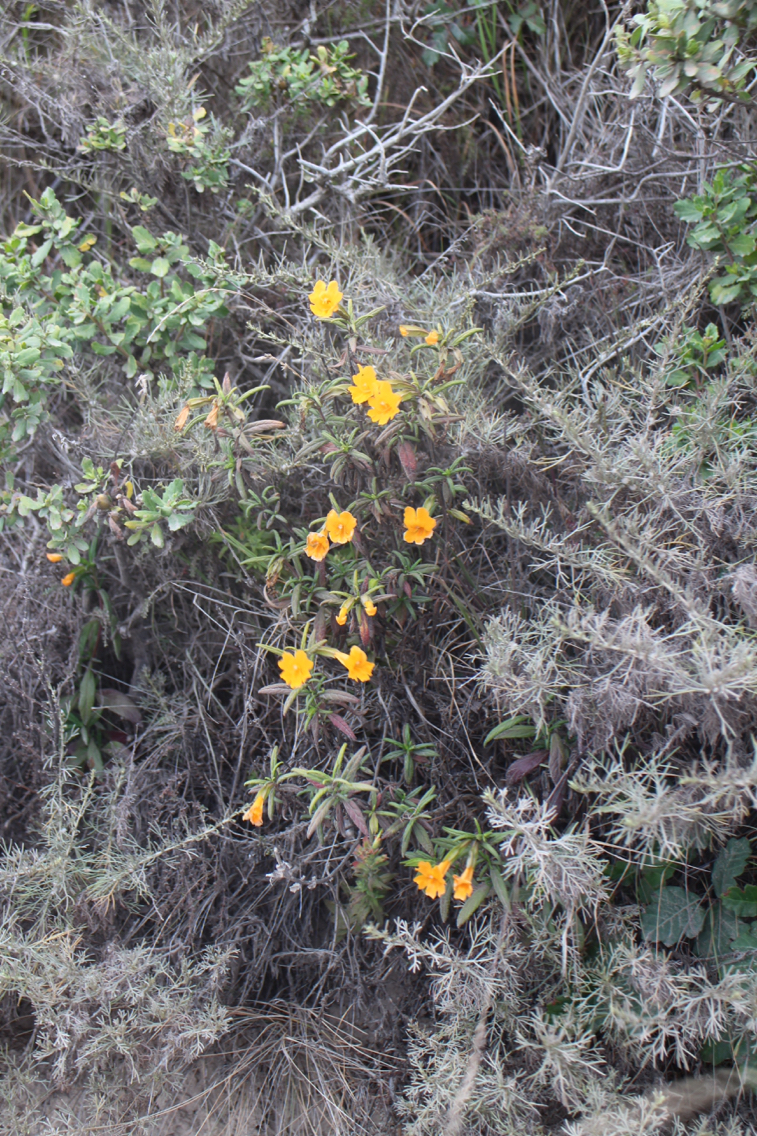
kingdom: Plantae
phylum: Tracheophyta
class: Magnoliopsida
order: Lamiales
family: Phrymaceae
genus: Diplacus
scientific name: Diplacus aurantiacus
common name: Bush monkey-flower
